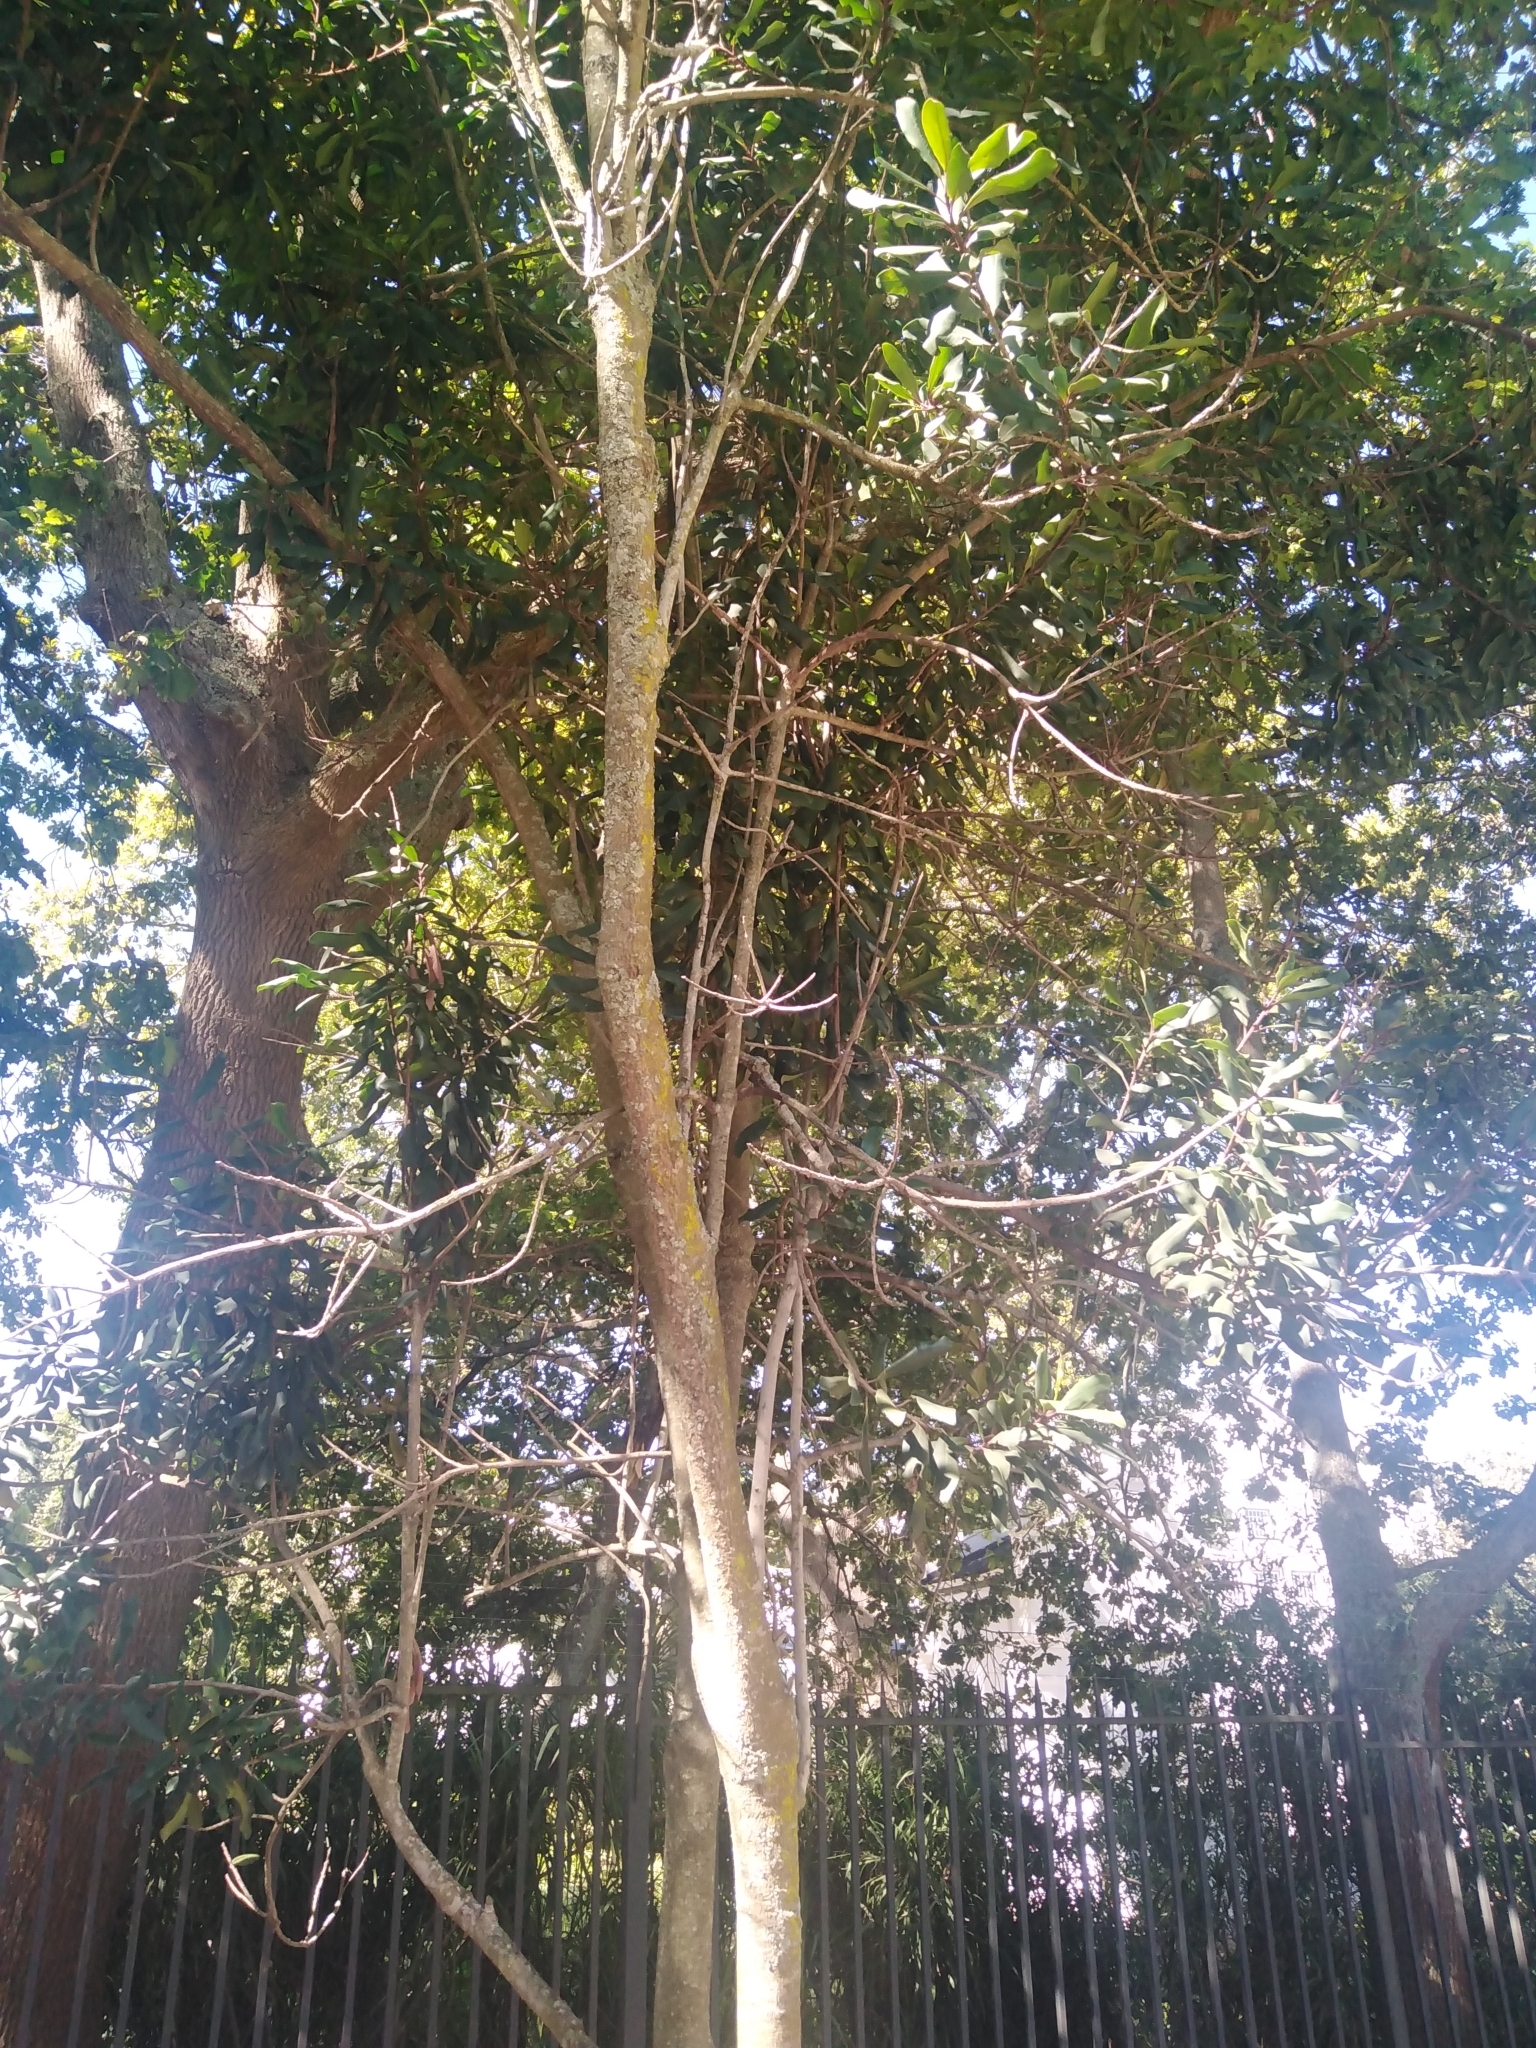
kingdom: Plantae
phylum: Tracheophyta
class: Magnoliopsida
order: Ericales
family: Primulaceae
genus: Myrsine
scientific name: Myrsine melanophloeos
